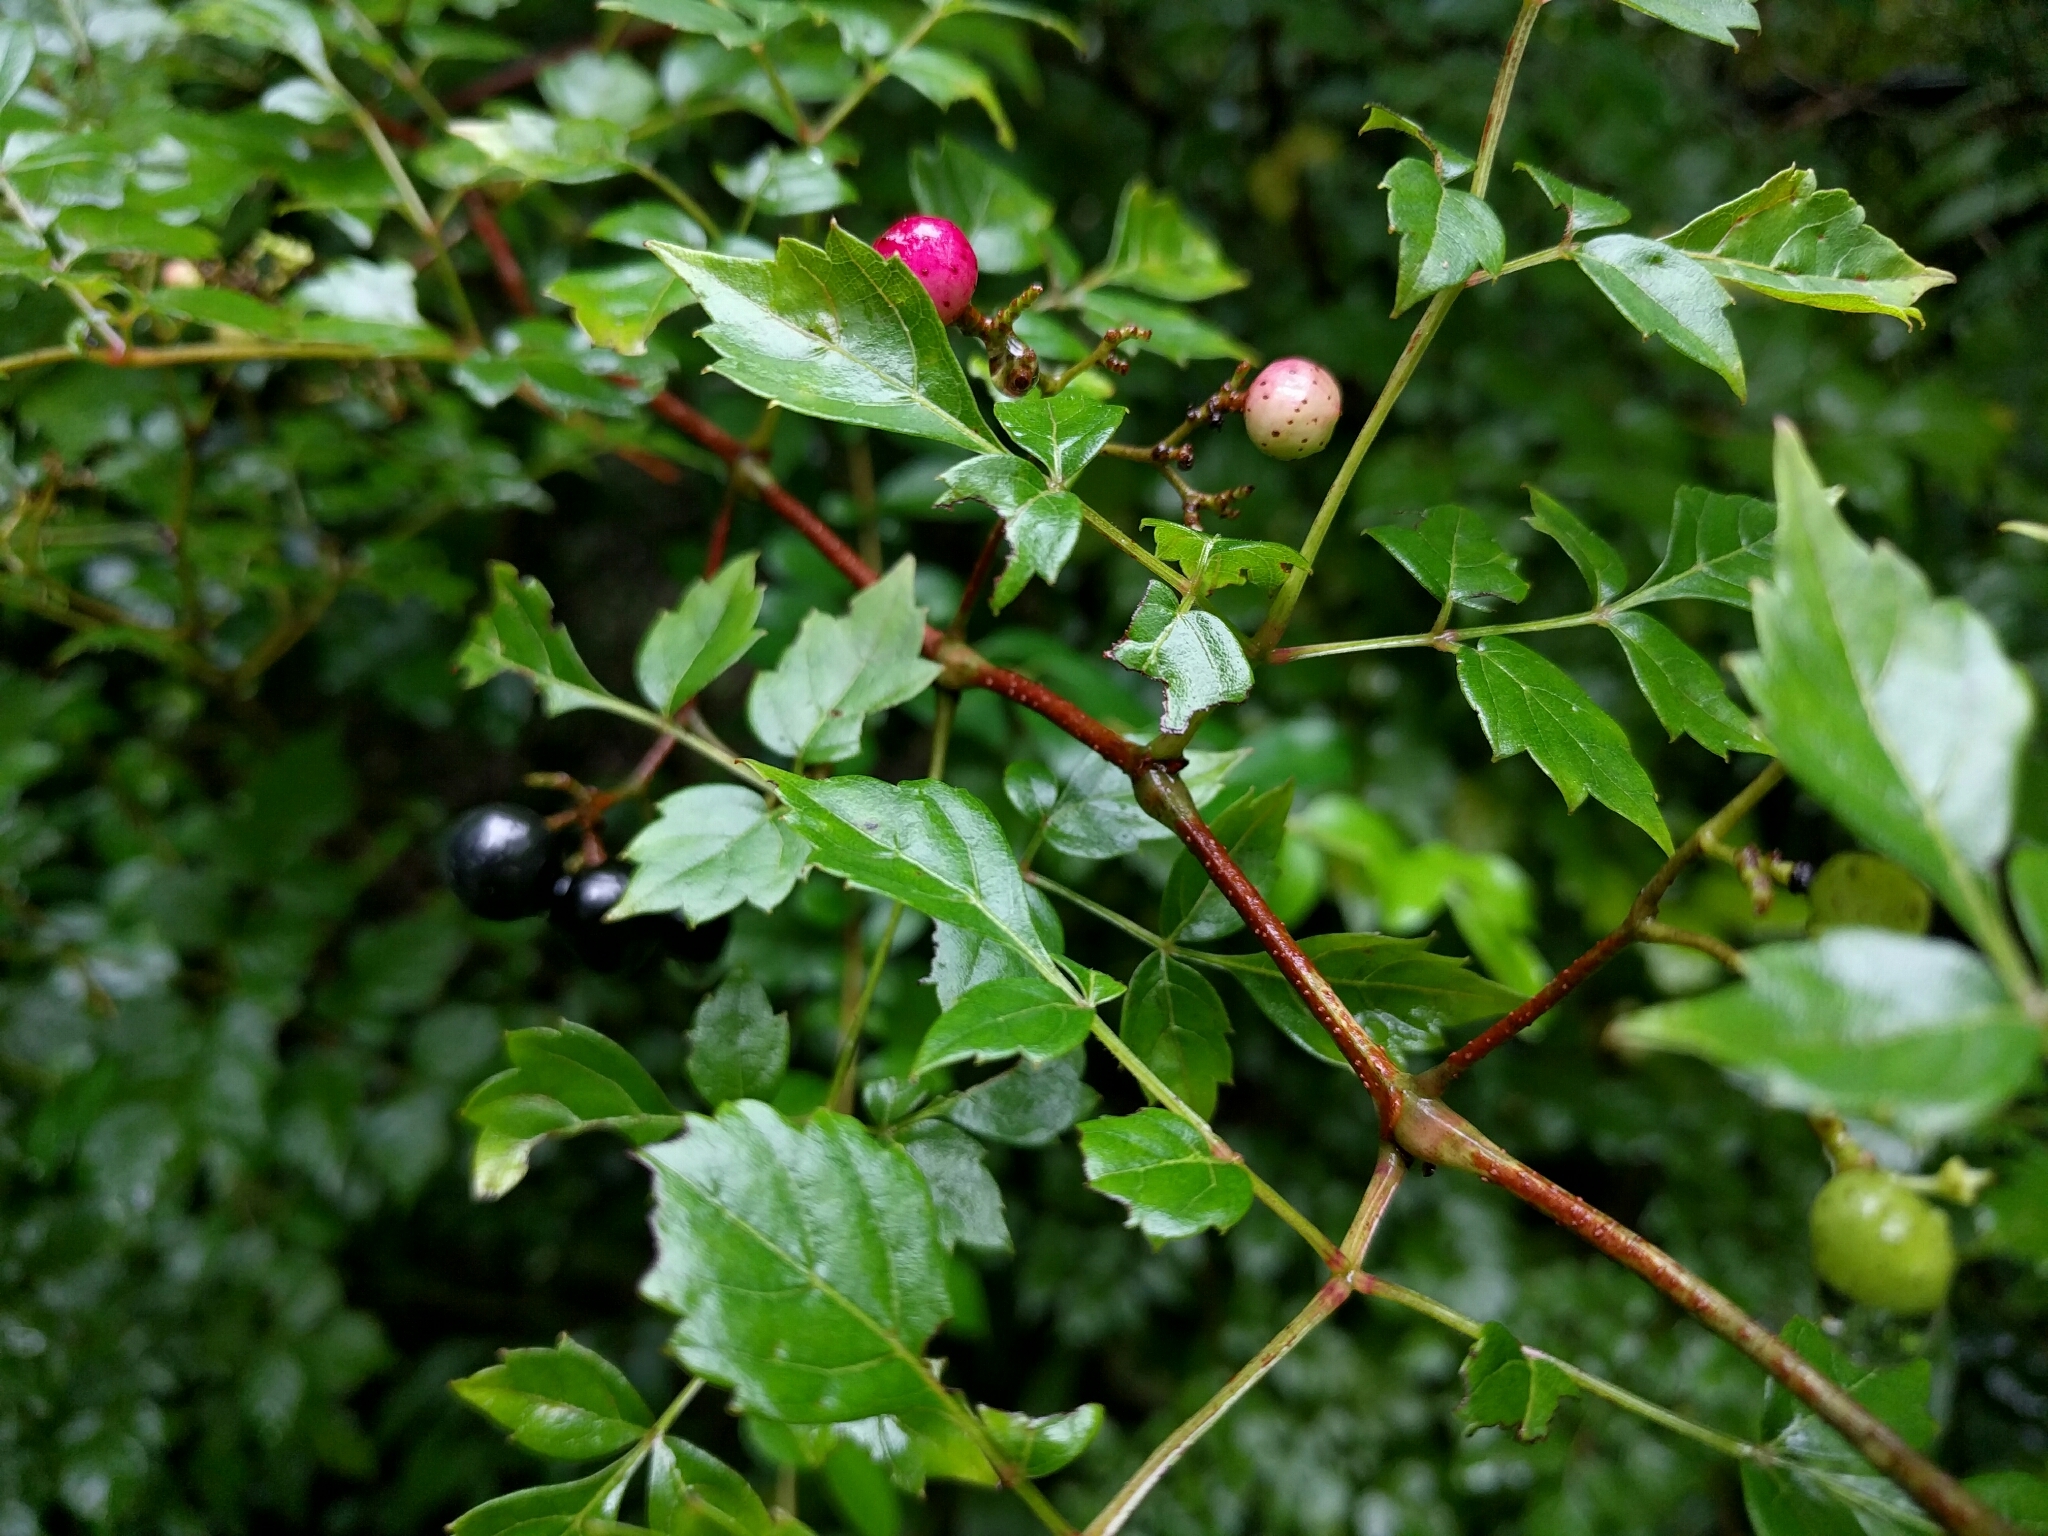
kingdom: Plantae
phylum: Tracheophyta
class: Magnoliopsida
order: Vitales
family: Vitaceae
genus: Nekemias
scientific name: Nekemias arborea
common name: Peppervine
